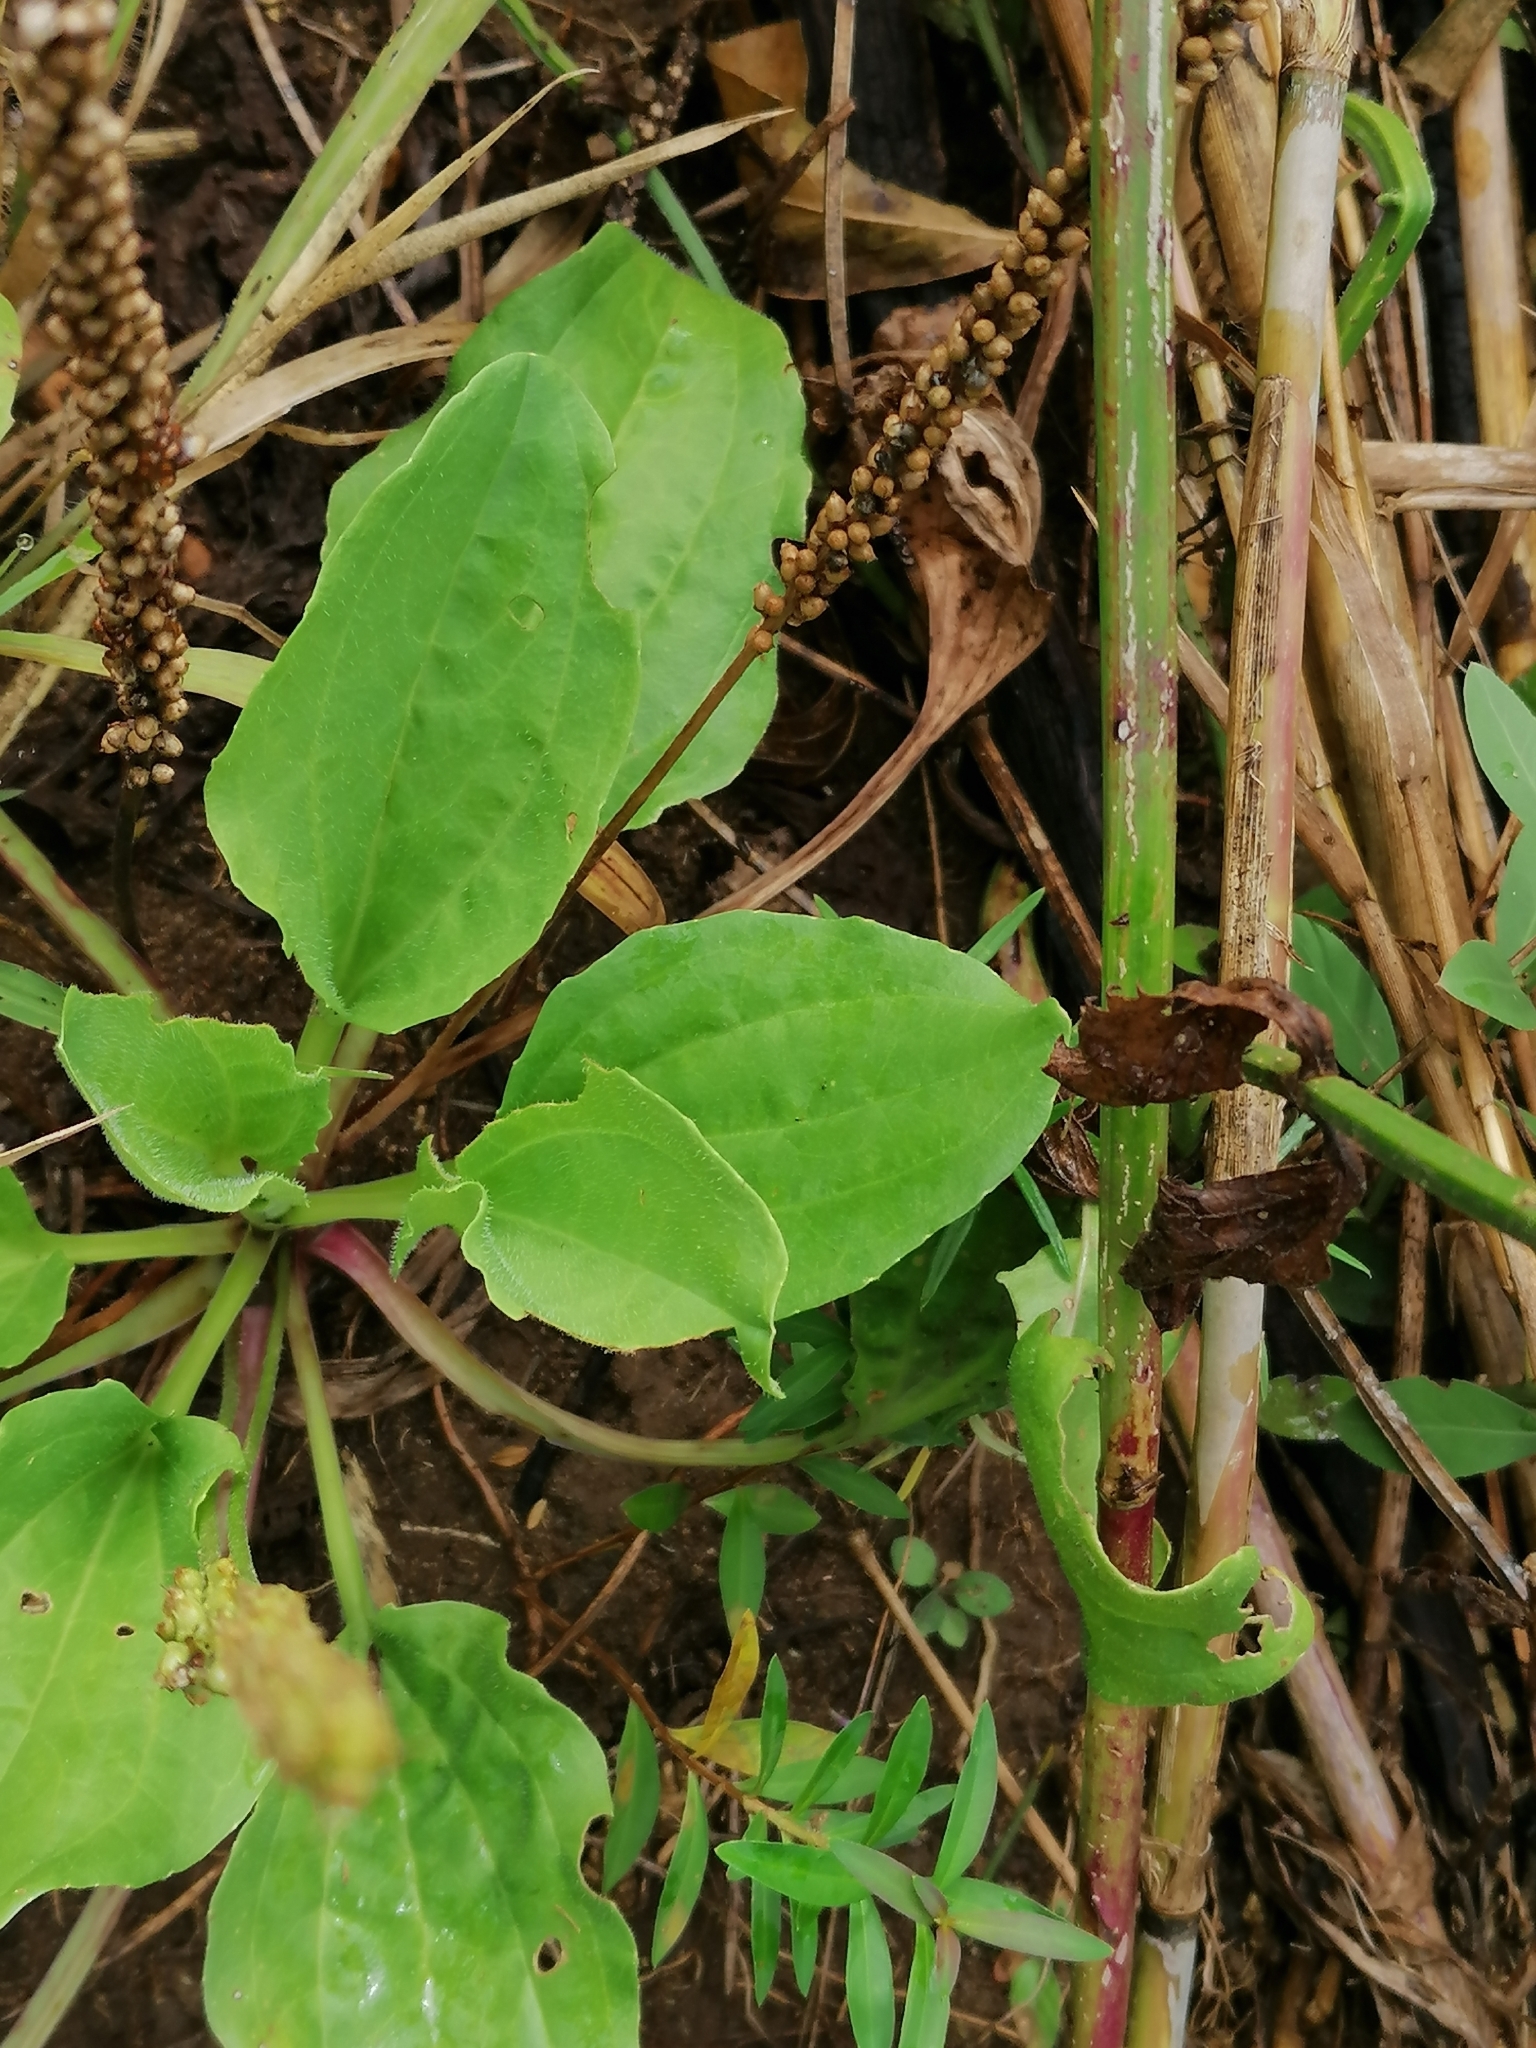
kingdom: Plantae
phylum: Tracheophyta
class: Magnoliopsida
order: Lamiales
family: Plantaginaceae
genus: Plantago
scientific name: Plantago major
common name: Common plantain
